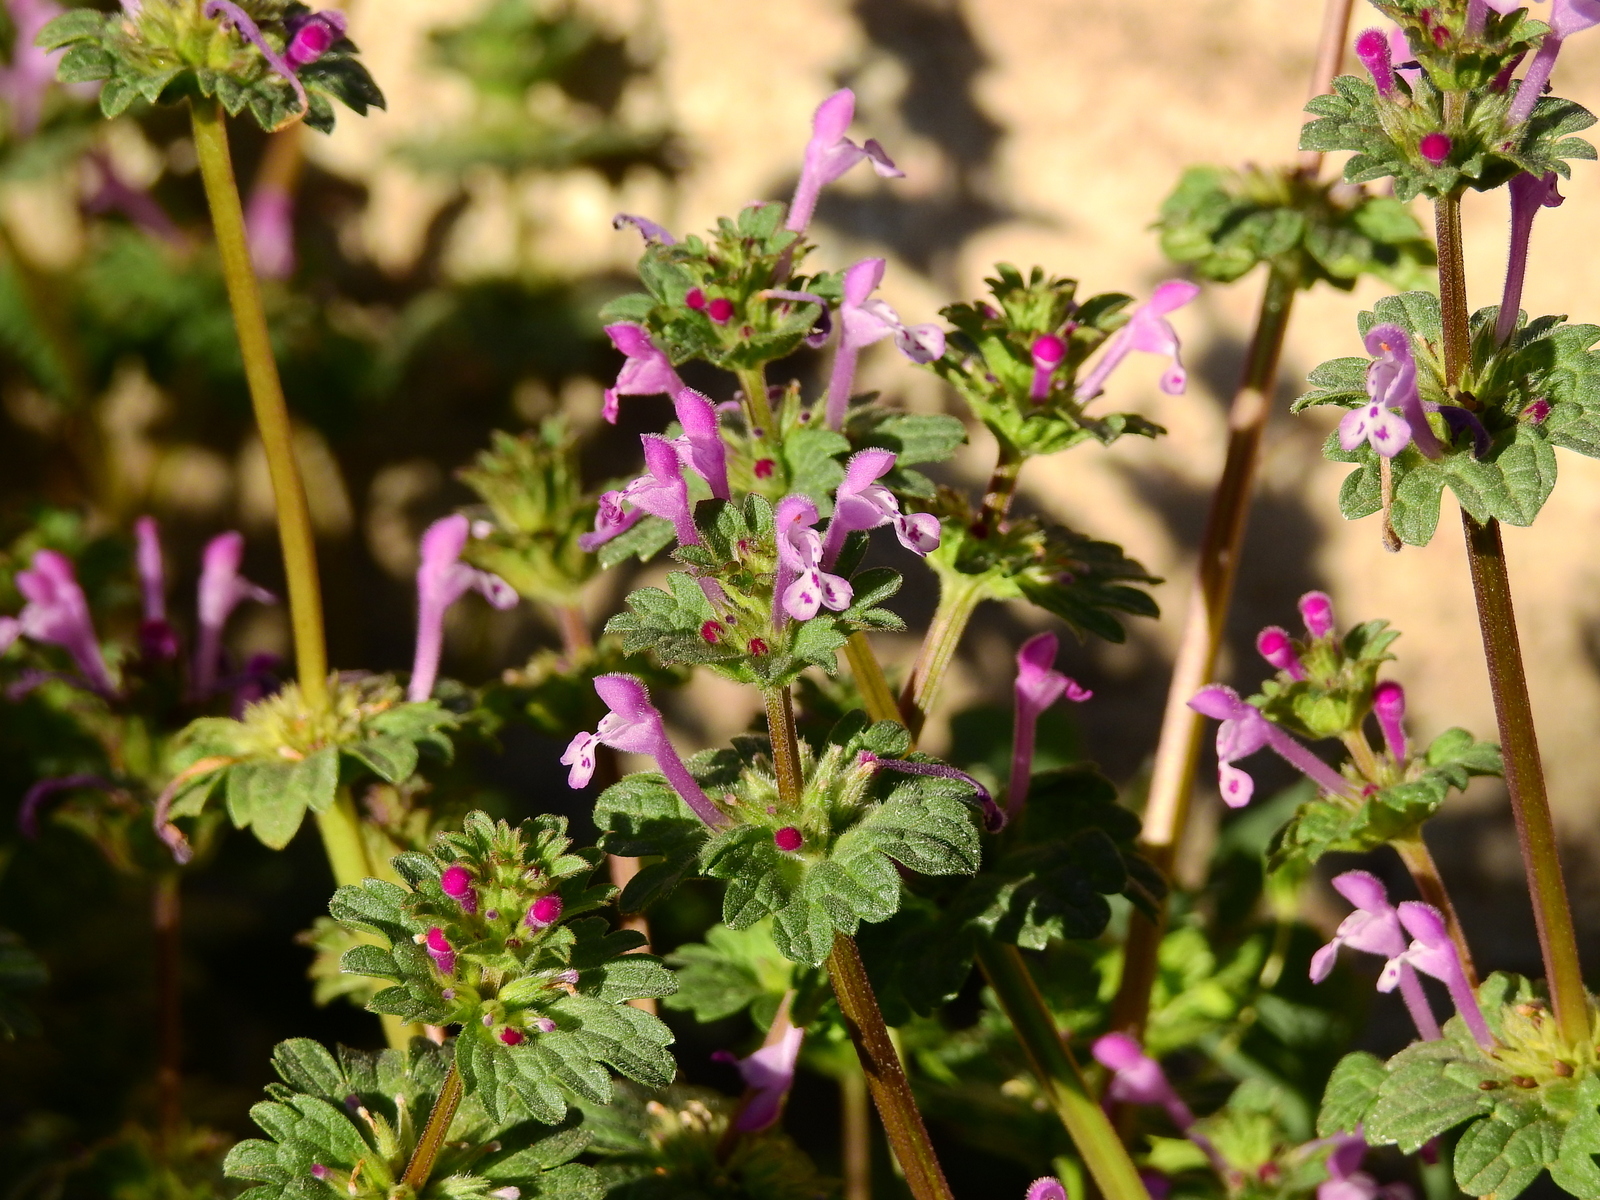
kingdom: Plantae
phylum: Tracheophyta
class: Magnoliopsida
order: Lamiales
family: Lamiaceae
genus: Lamium
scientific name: Lamium amplexicaule
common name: Henbit dead-nettle
